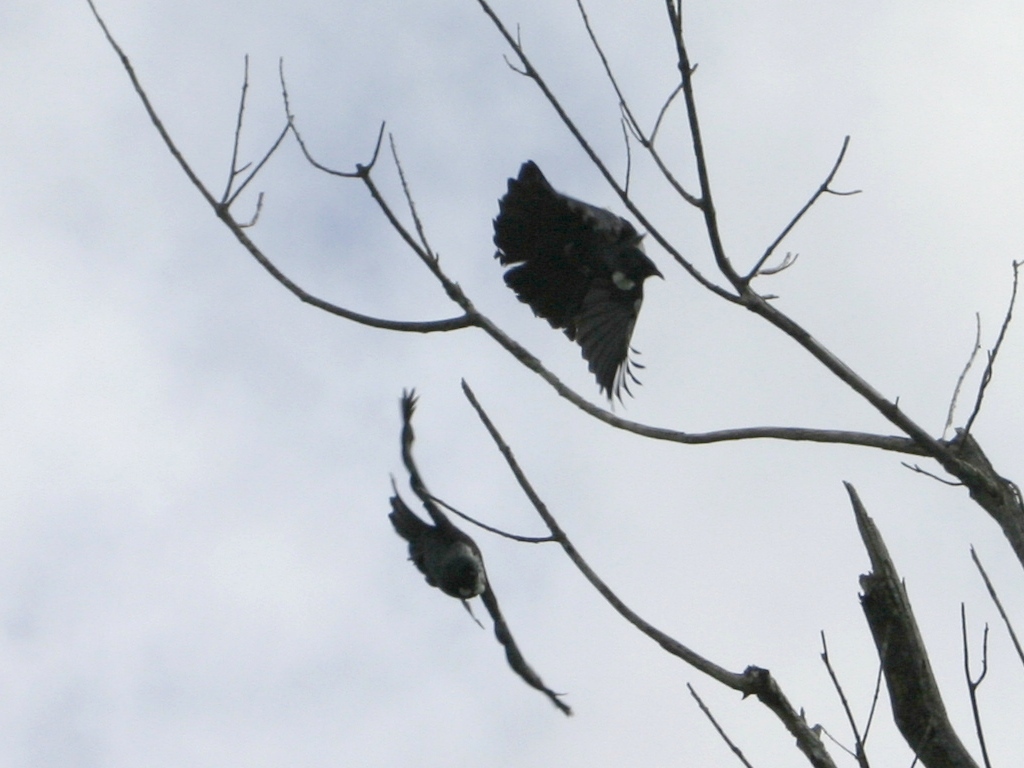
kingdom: Animalia
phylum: Chordata
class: Aves
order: Passeriformes
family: Meliphagidae
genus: Prosthemadera
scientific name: Prosthemadera novaeseelandiae
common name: Tui
